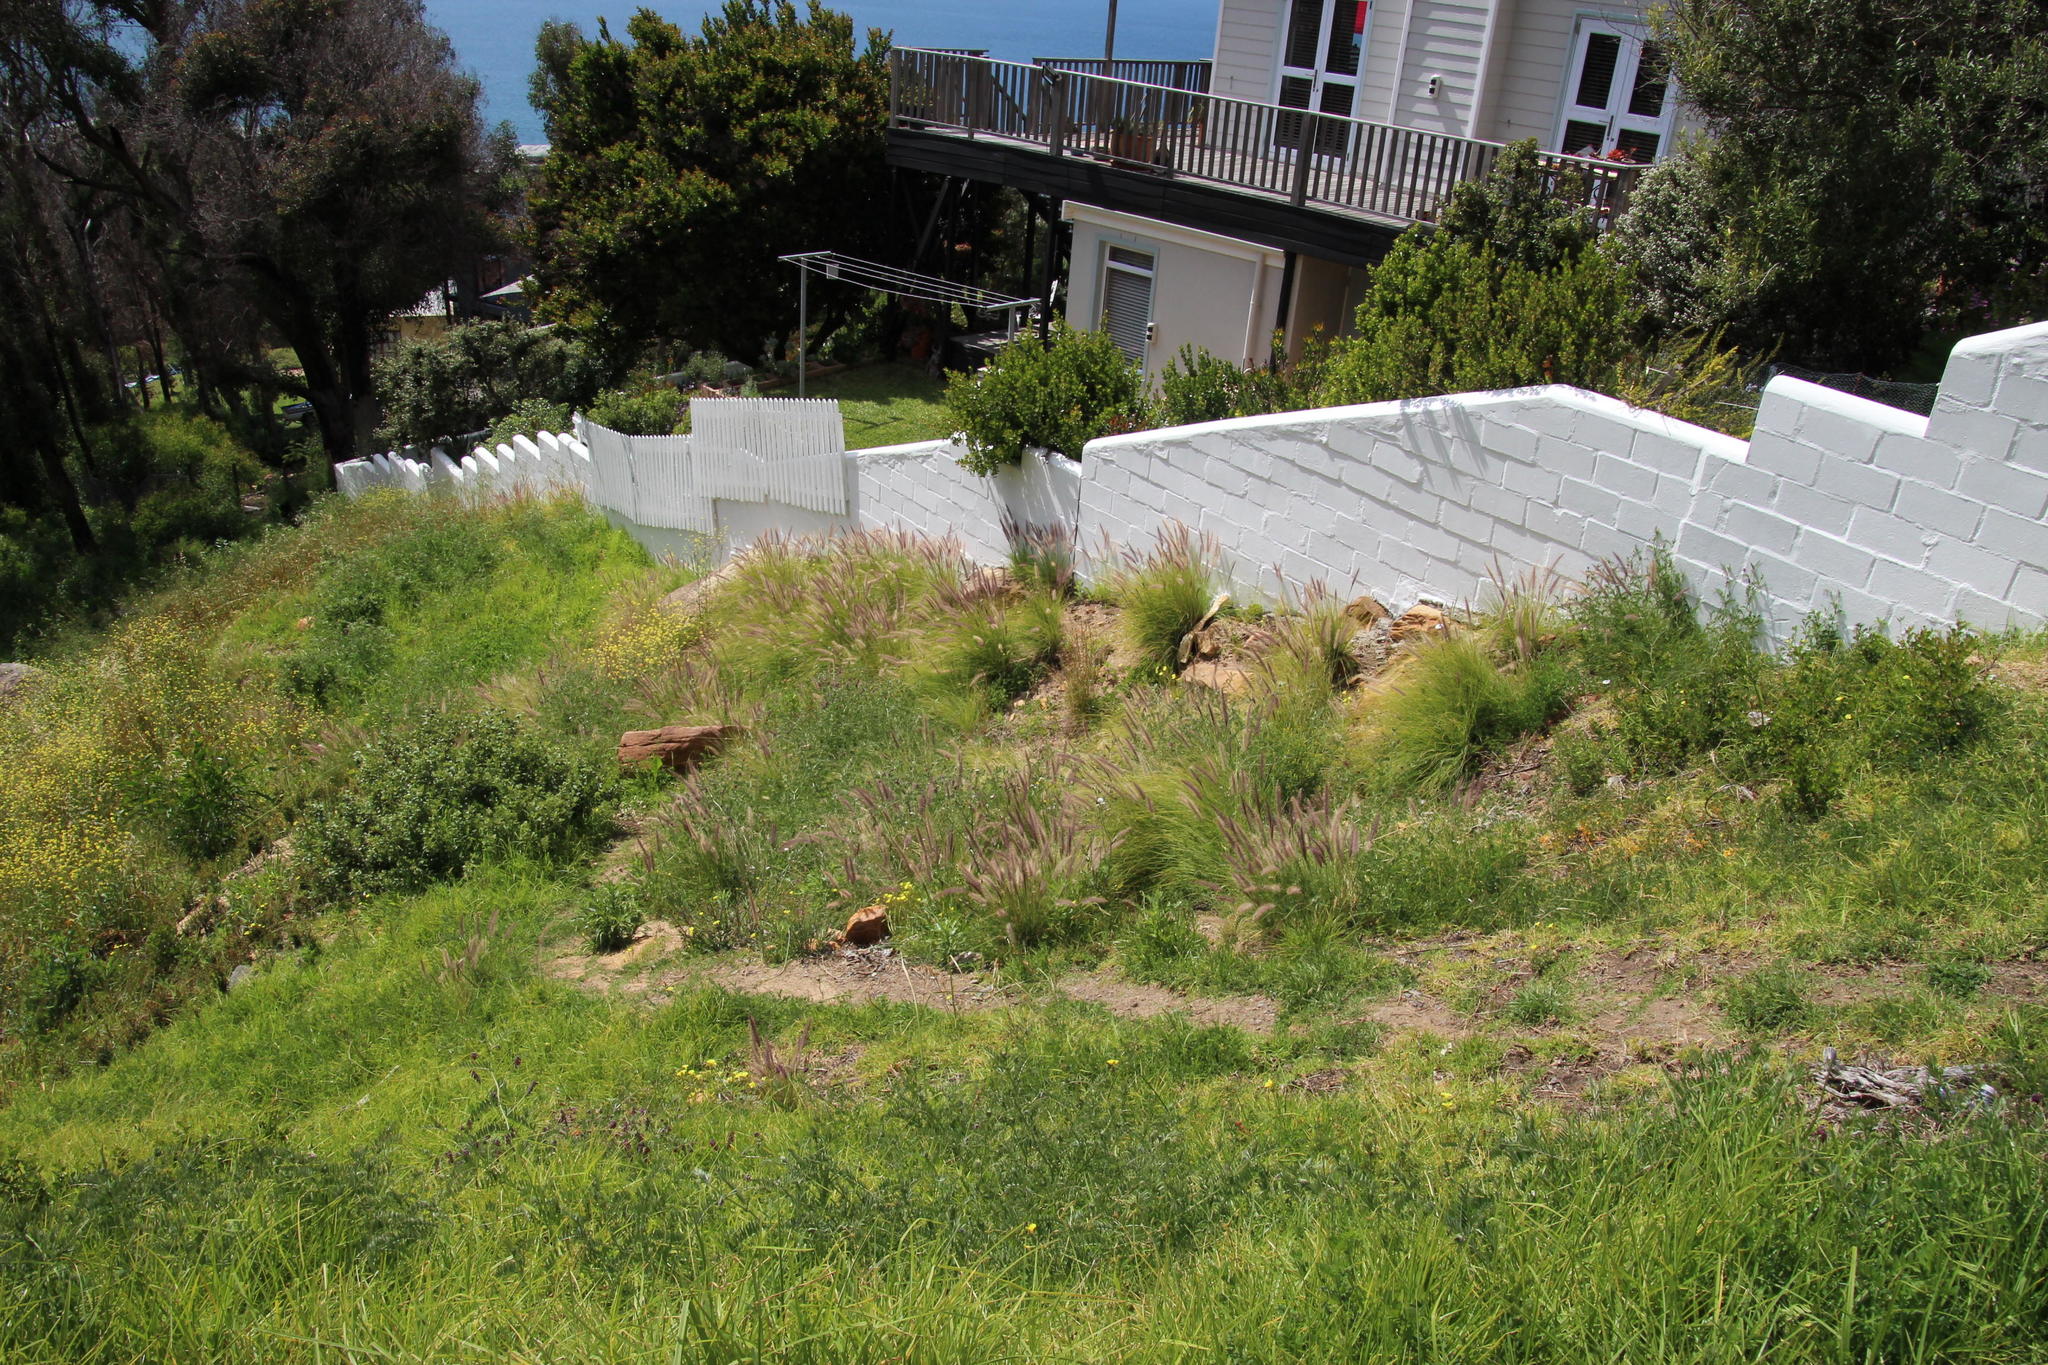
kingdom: Plantae
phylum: Tracheophyta
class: Liliopsida
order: Poales
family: Poaceae
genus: Cenchrus
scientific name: Cenchrus setaceus
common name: Crimson fountaingrass
